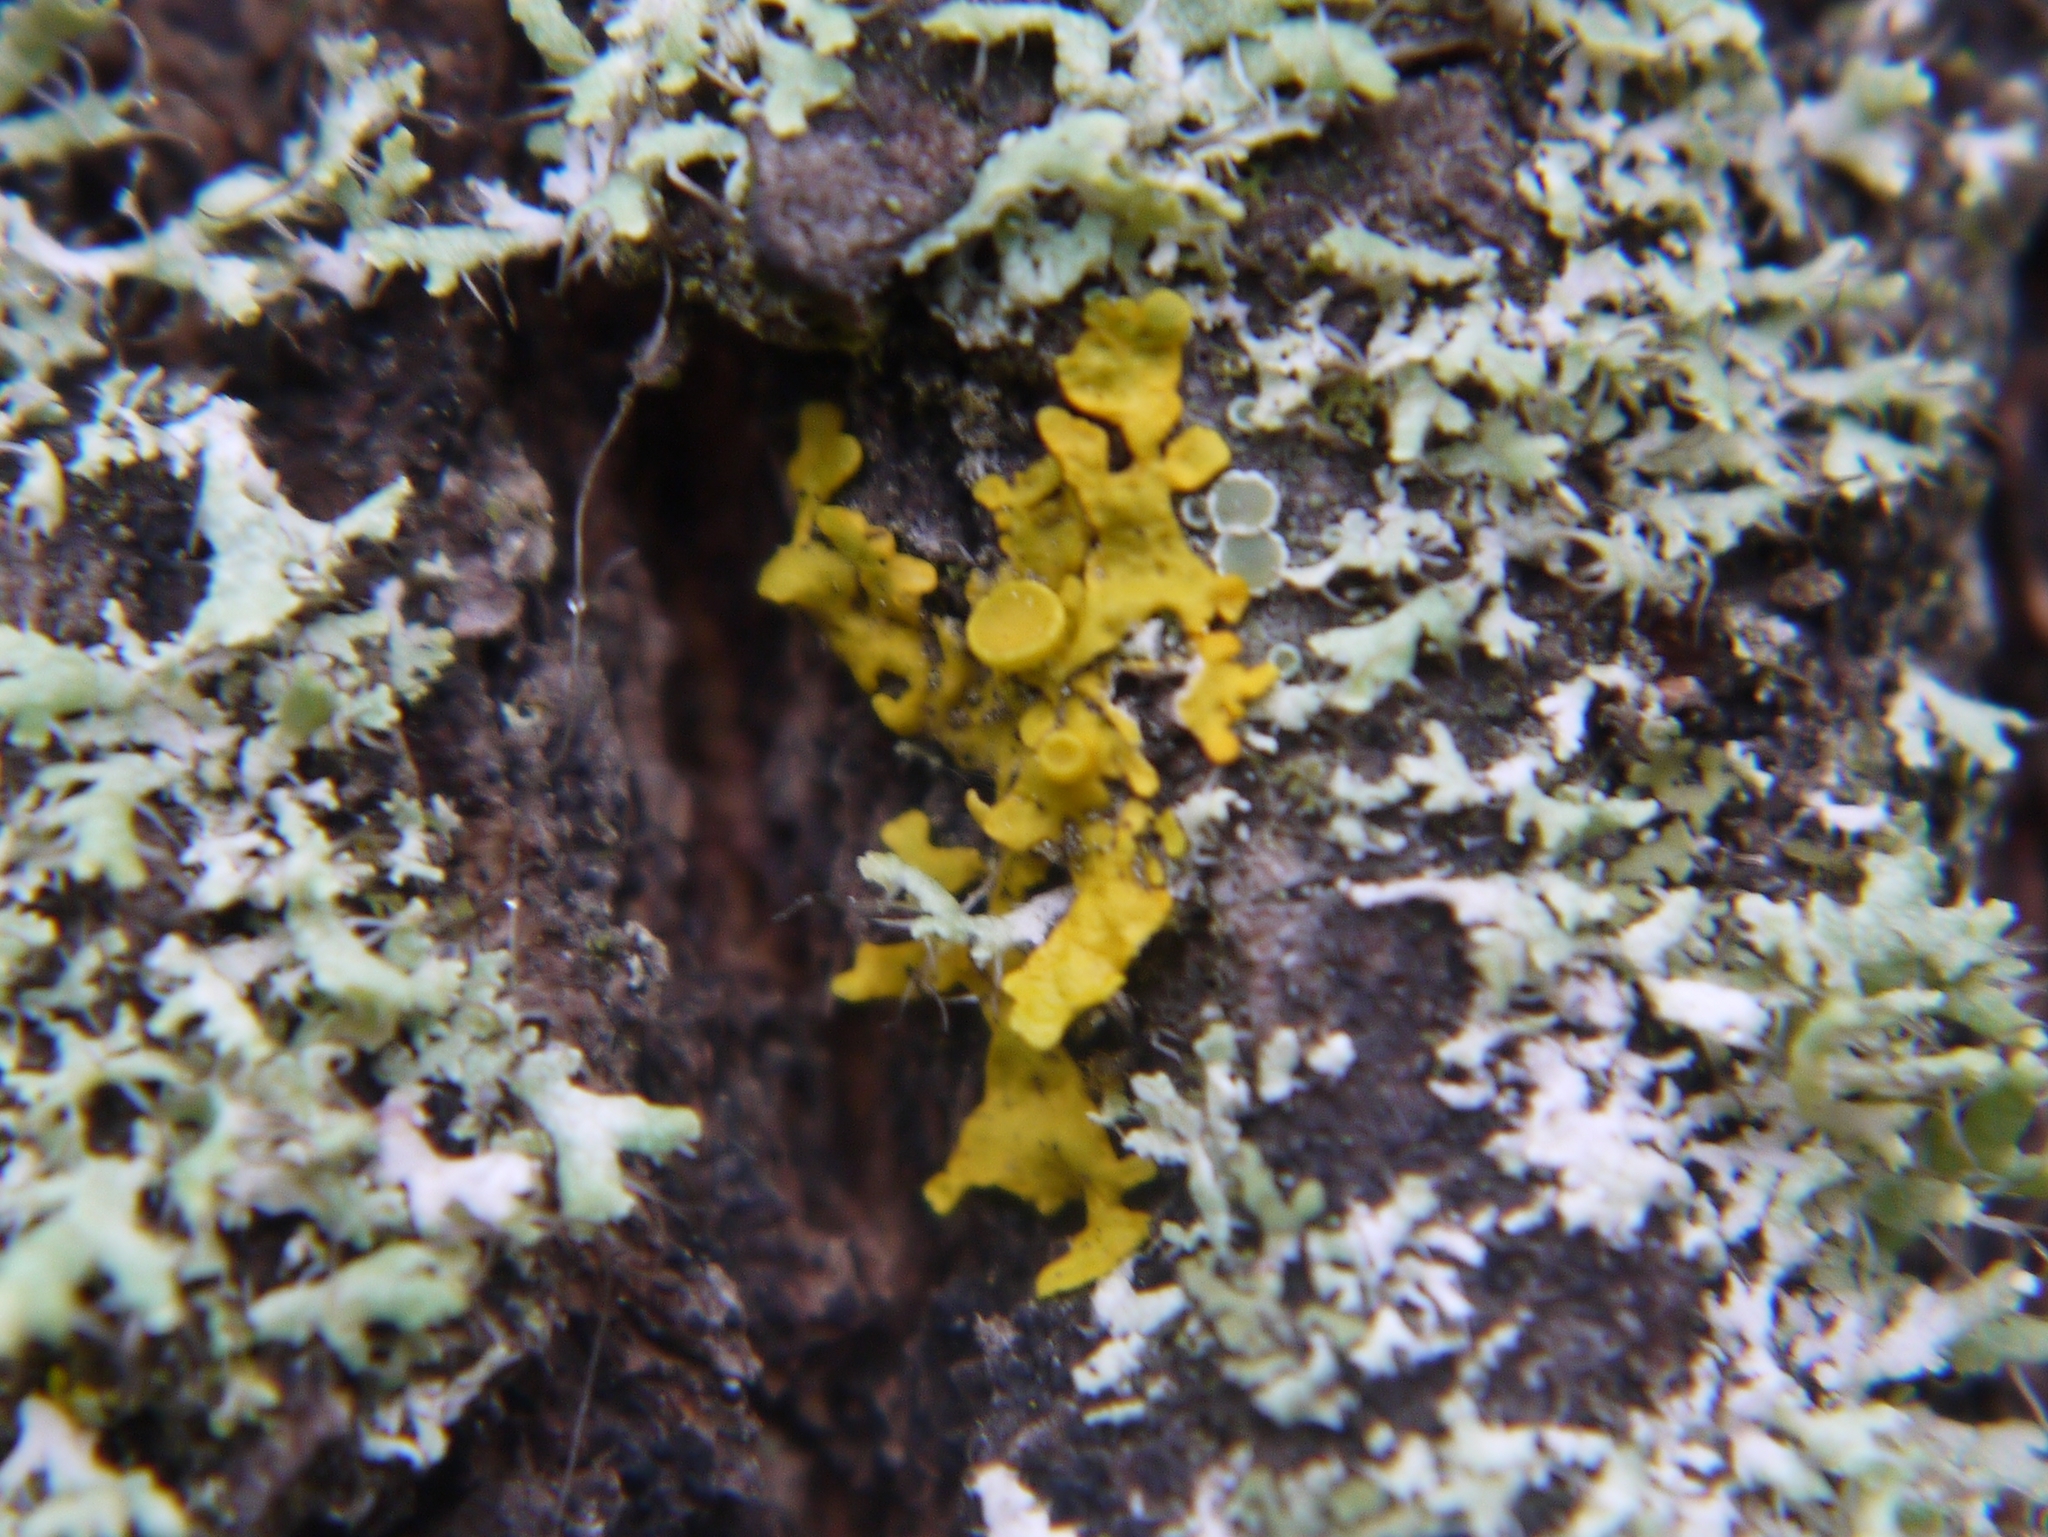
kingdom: Fungi
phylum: Ascomycota
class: Lecanoromycetes
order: Teloschistales
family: Teloschistaceae
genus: Xanthoria
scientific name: Xanthoria parietina
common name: Common orange lichen
